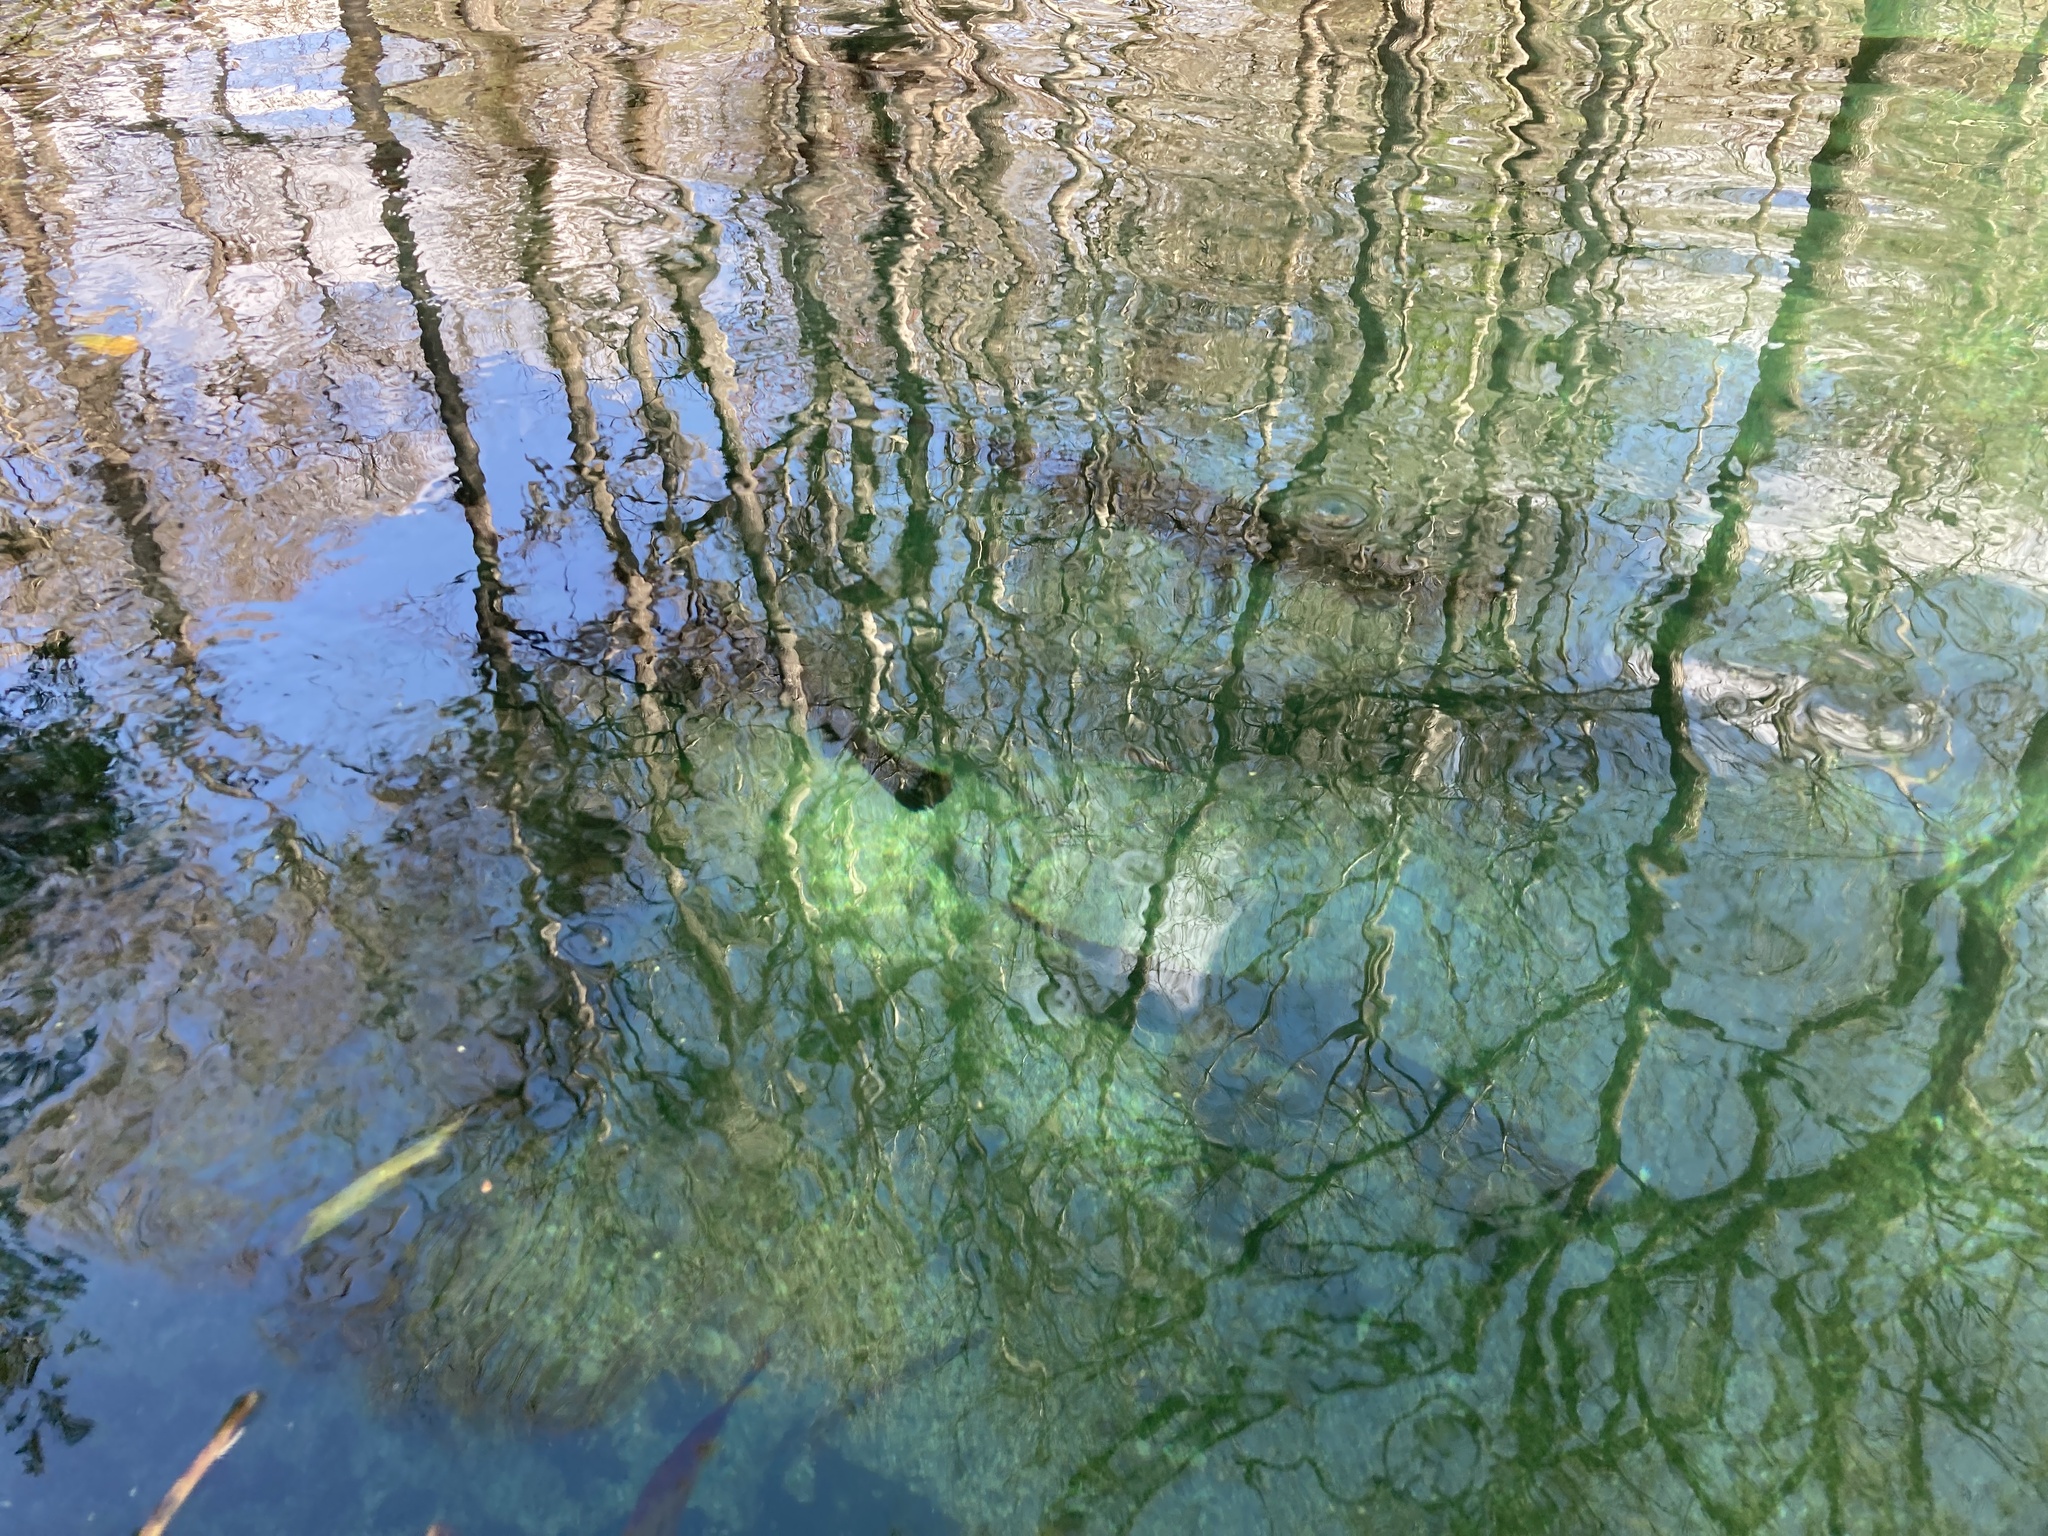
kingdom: Animalia
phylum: Chordata
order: Lepisosteiformes
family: Lepisosteidae
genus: Lepisosteus
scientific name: Lepisosteus osseus
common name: Longnose gar
